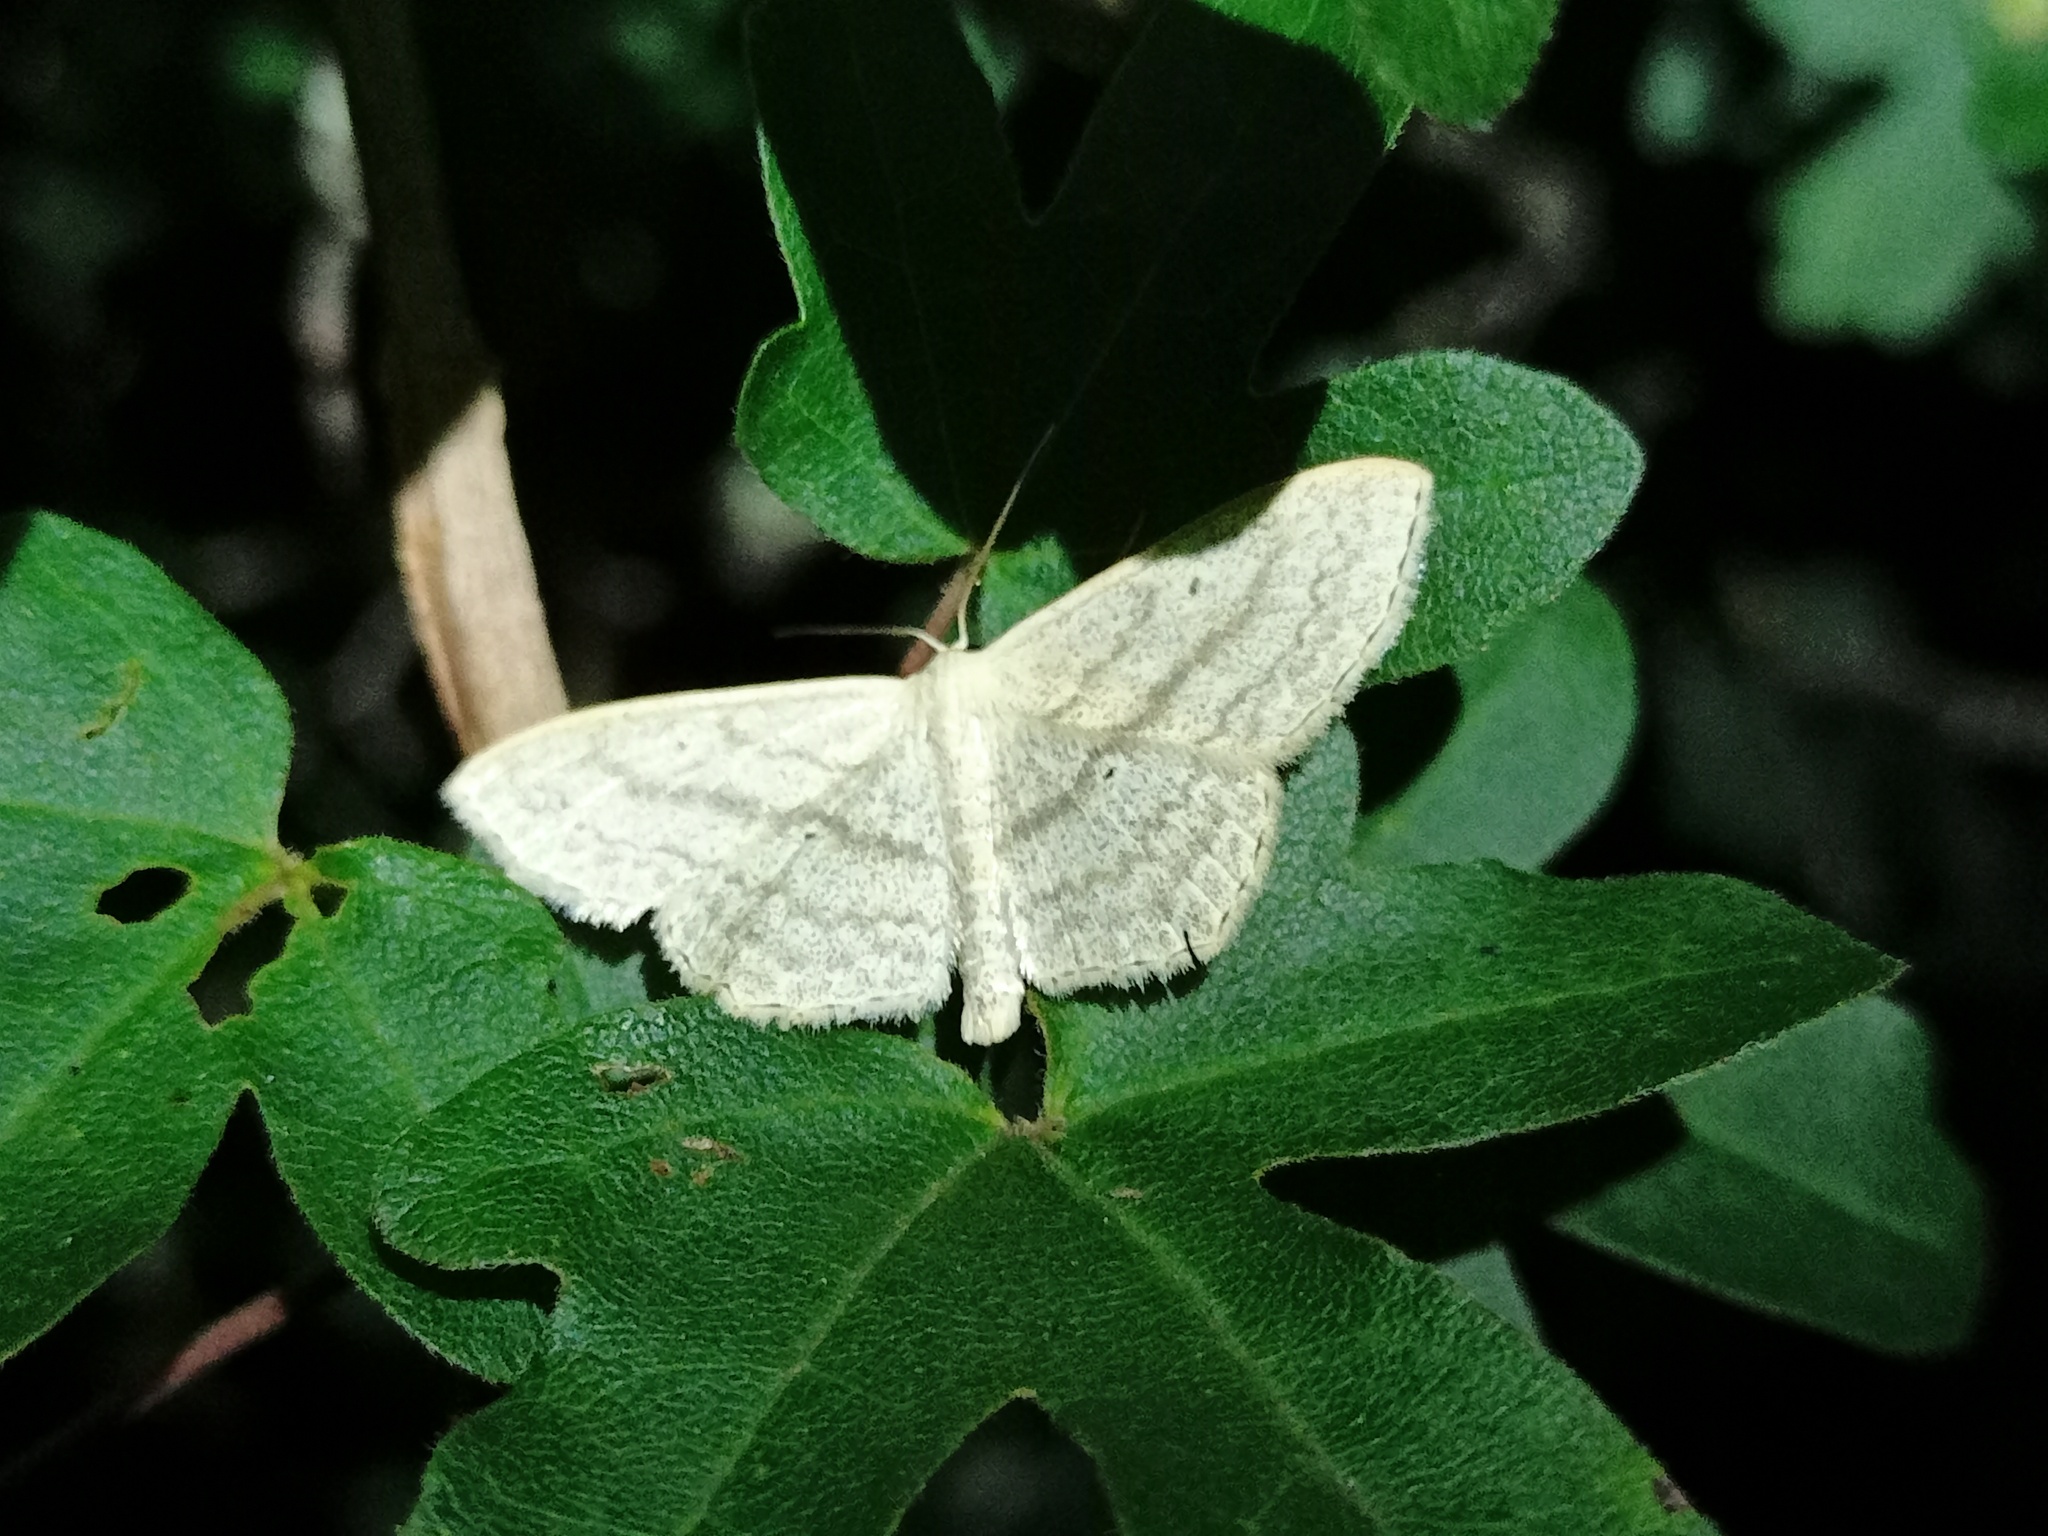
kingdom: Animalia
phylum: Arthropoda
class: Insecta
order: Lepidoptera
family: Geometridae
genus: Scopula
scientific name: Scopula nigropunctata
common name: Sub-angled wave
